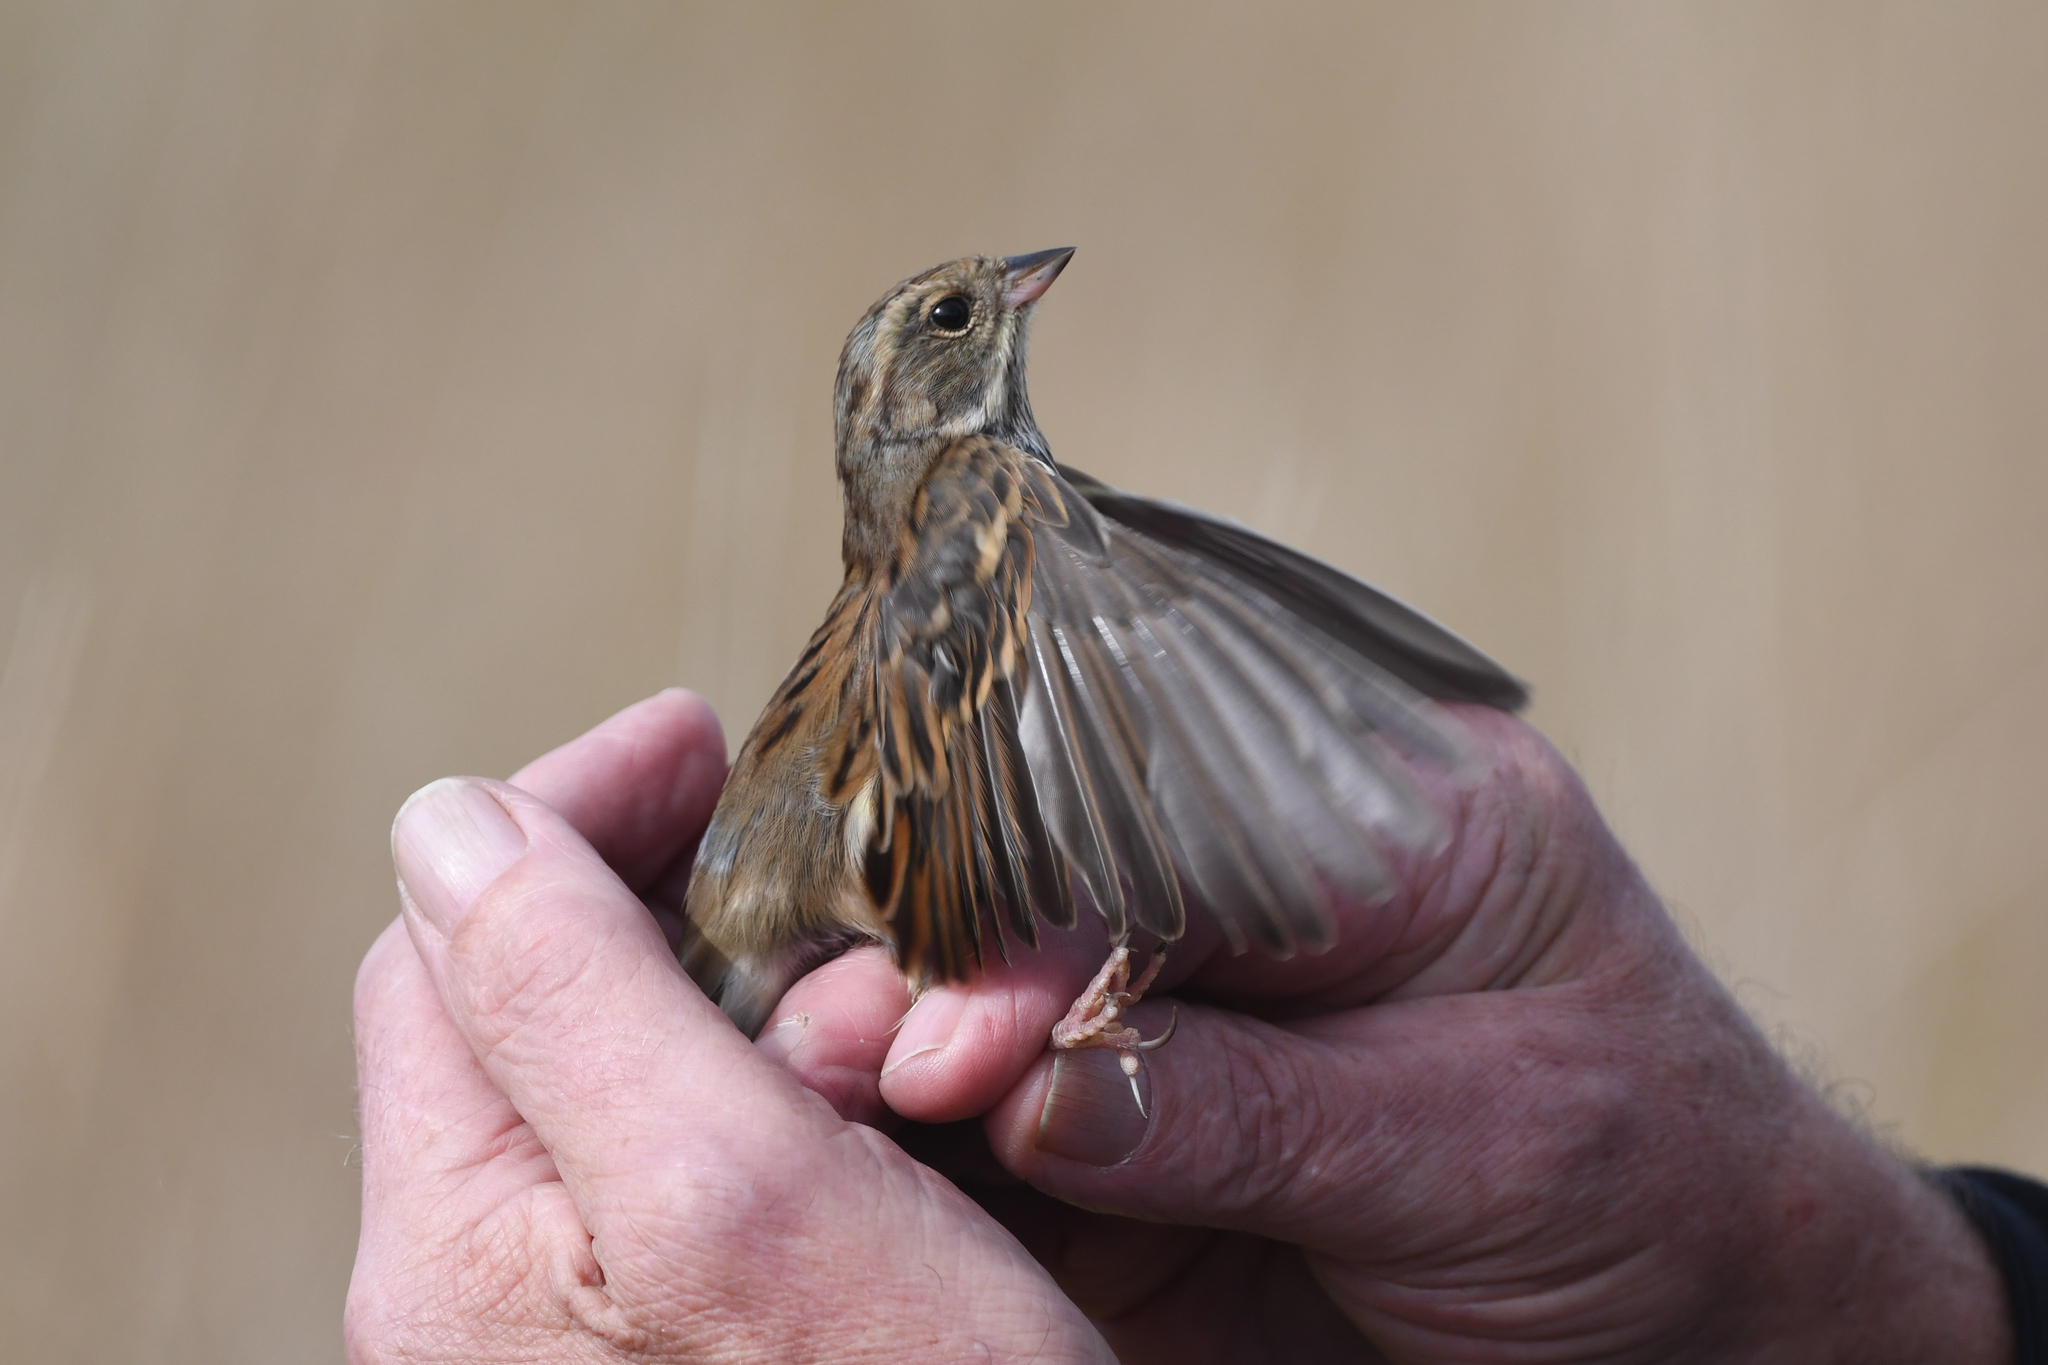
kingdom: Animalia
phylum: Chordata
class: Aves
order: Passeriformes
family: Emberizidae
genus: Emberiza
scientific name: Emberiza spodocephala
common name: Black-faced bunting
